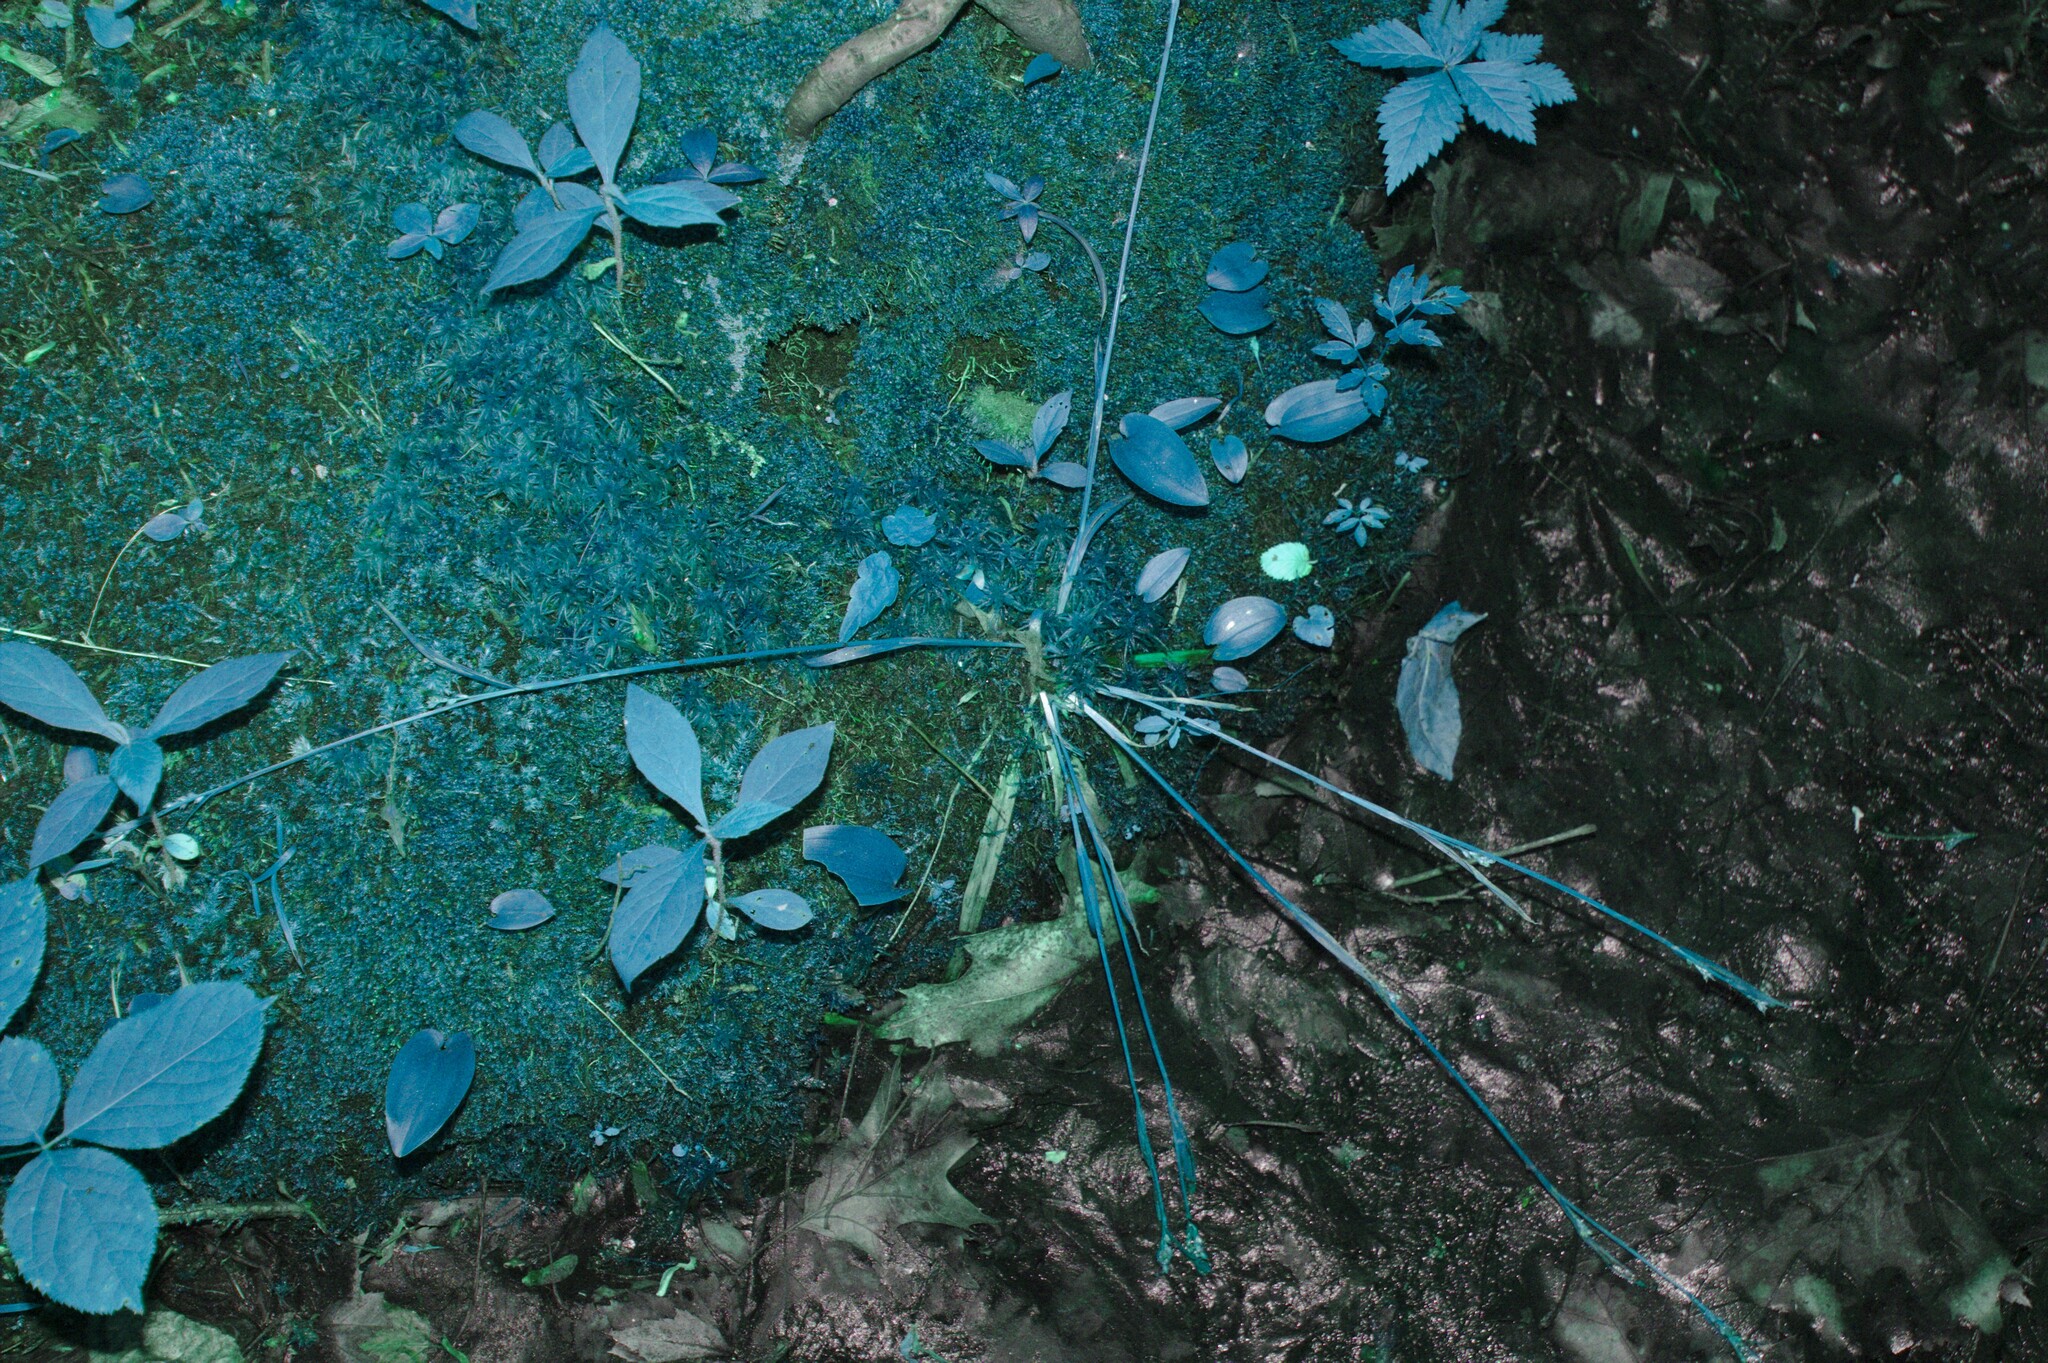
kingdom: Plantae
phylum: Tracheophyta
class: Magnoliopsida
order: Asterales
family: Asteraceae
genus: Oclemena
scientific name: Oclemena acuminata
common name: Mountain aster
